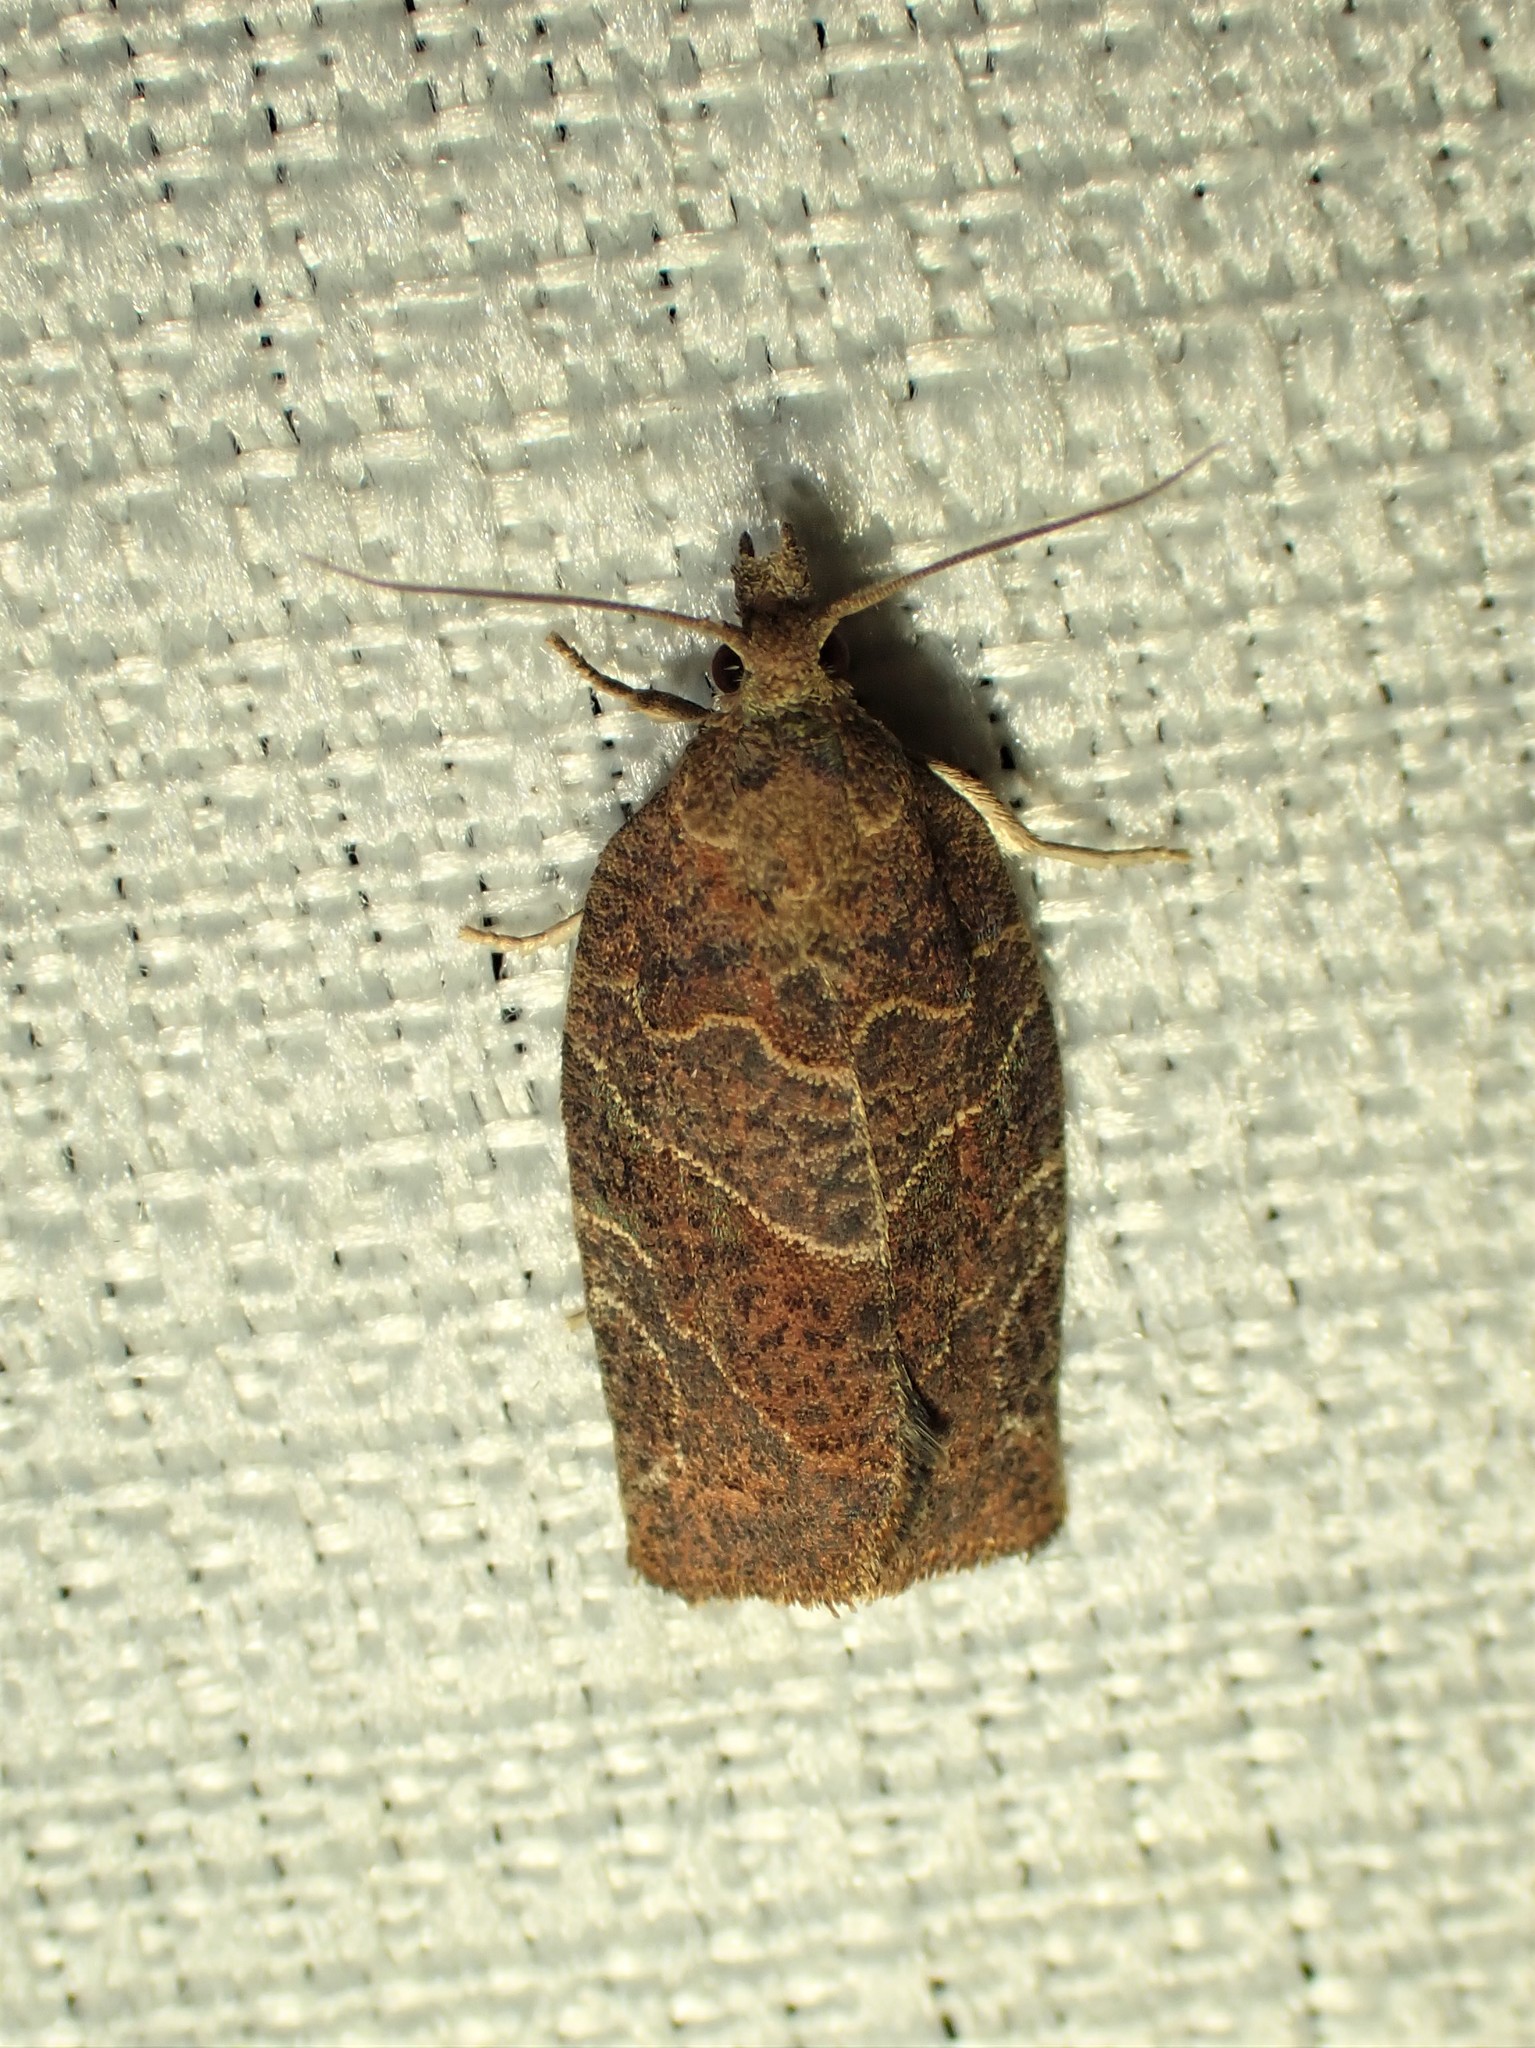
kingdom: Animalia
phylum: Arthropoda
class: Insecta
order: Lepidoptera
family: Tortricidae
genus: Pandemis
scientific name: Pandemis canadana
